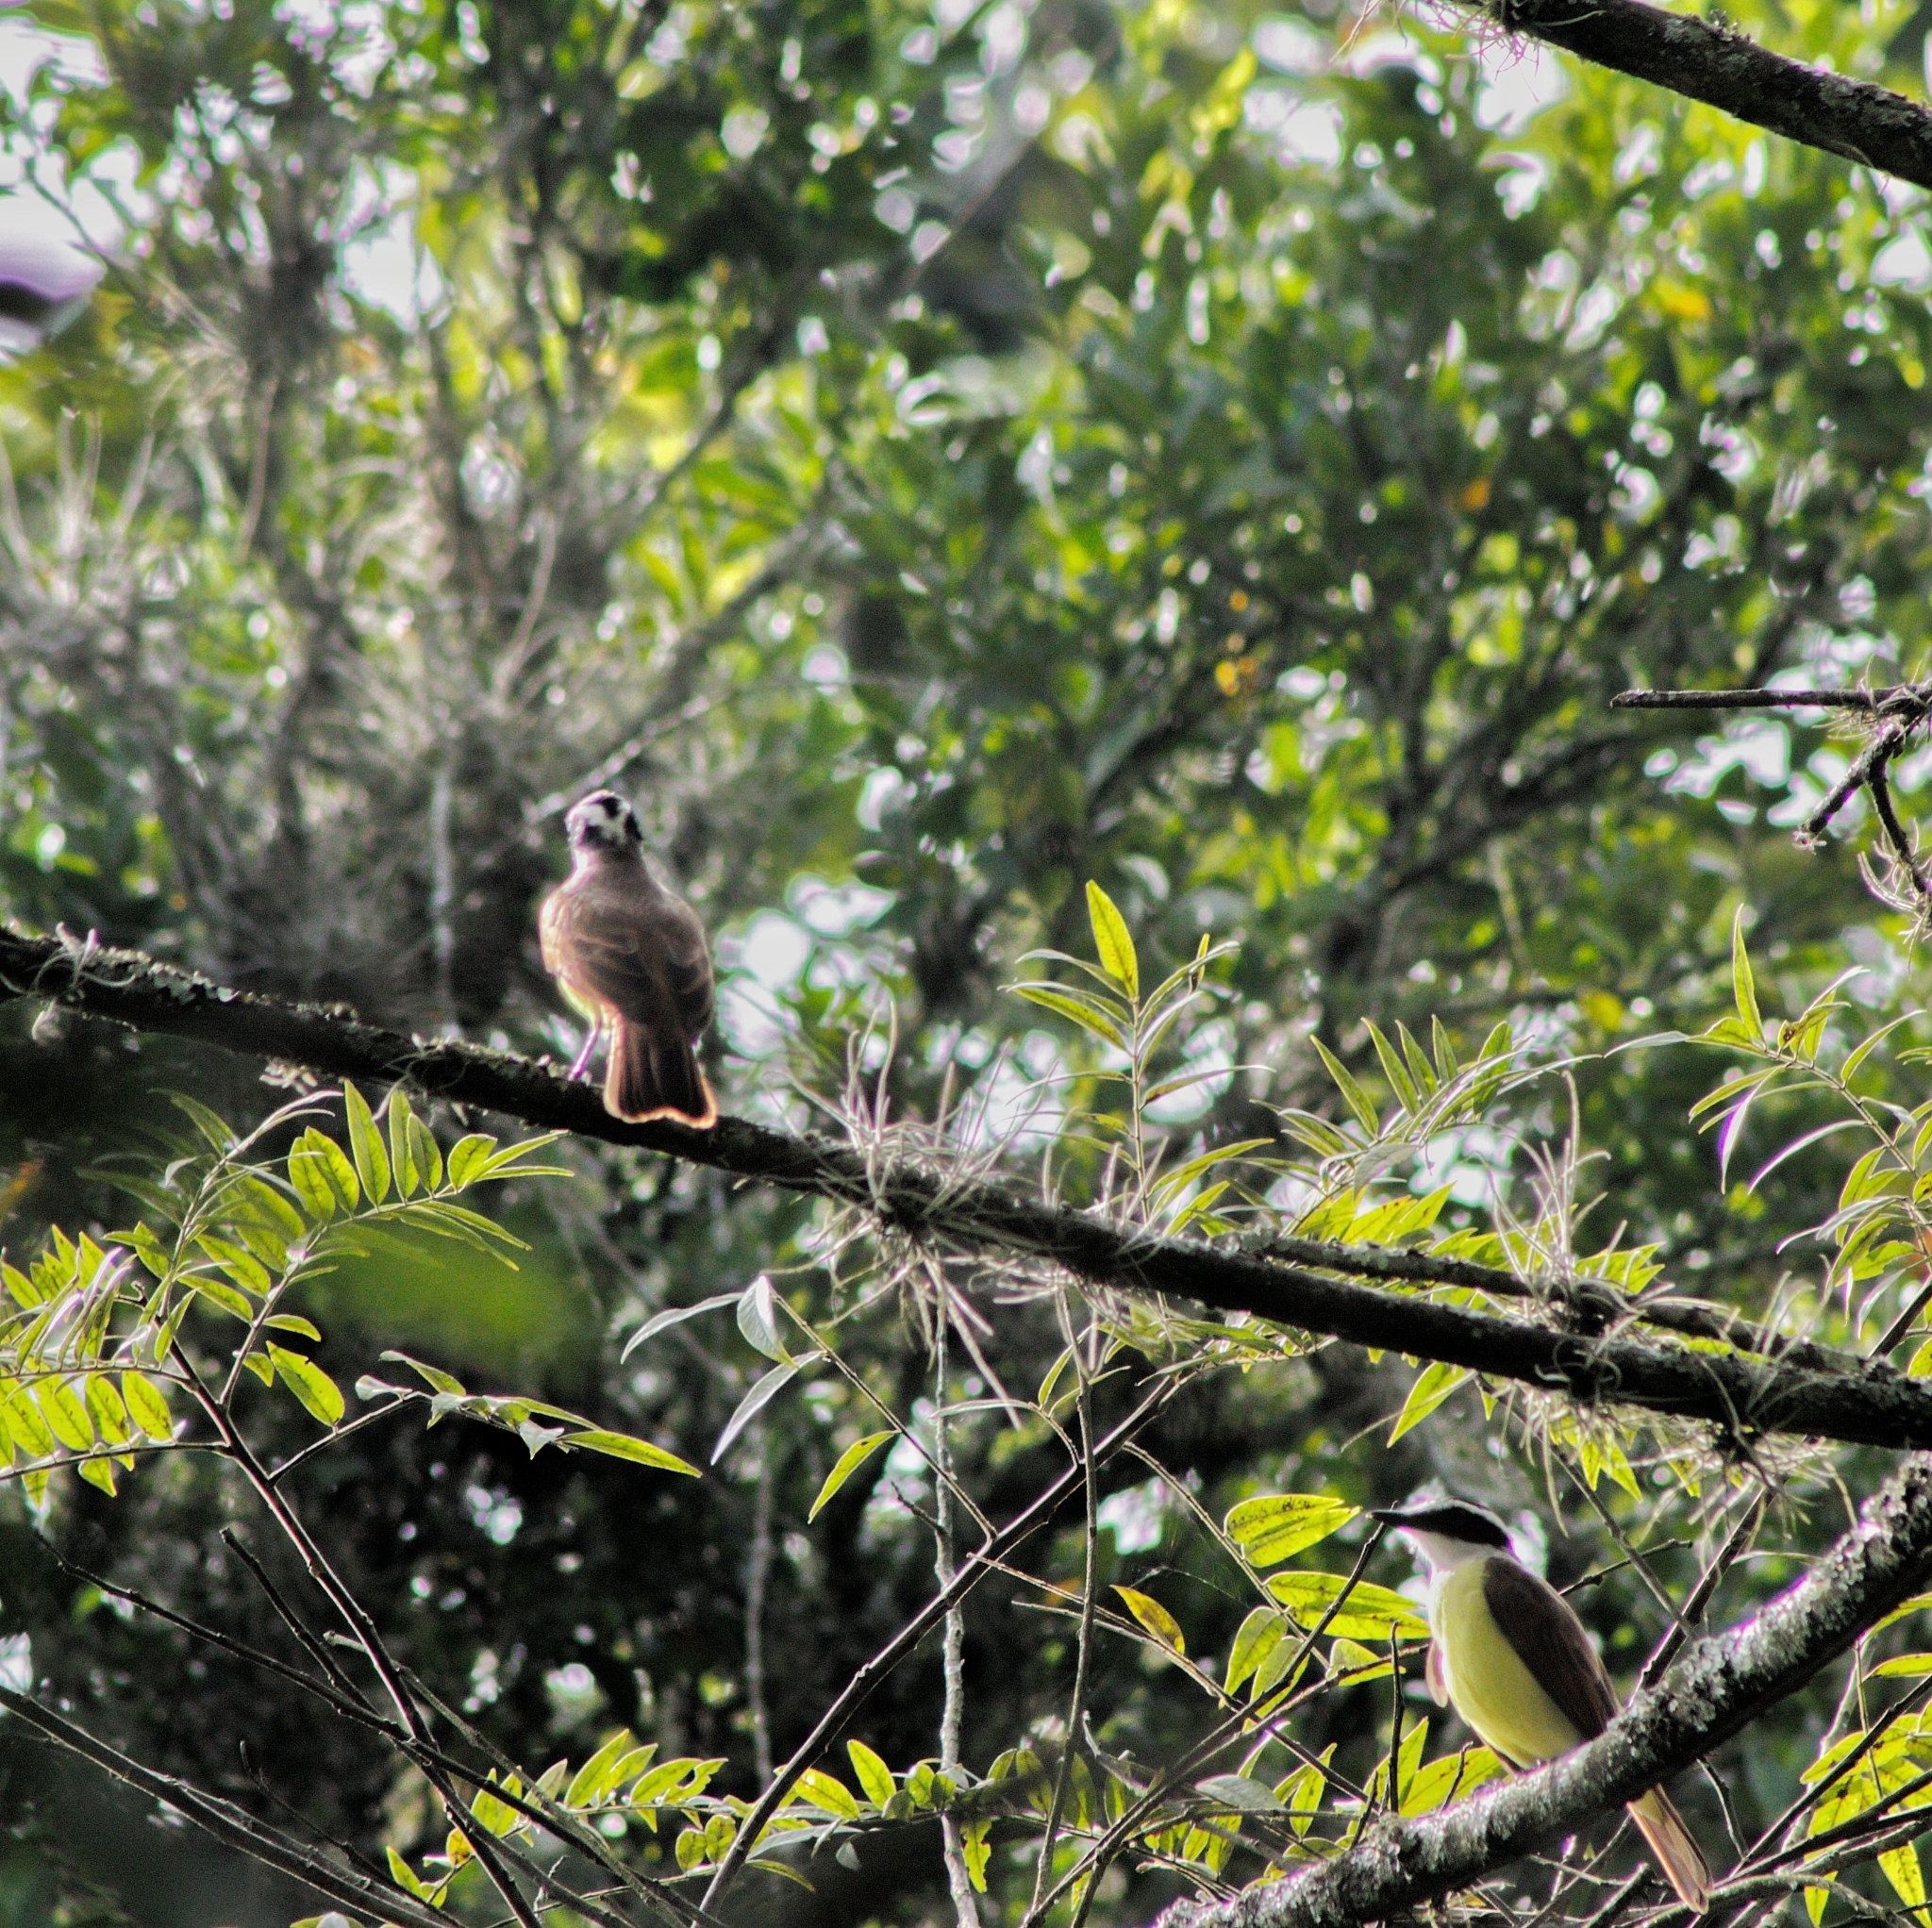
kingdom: Animalia
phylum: Chordata
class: Aves
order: Passeriformes
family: Tyrannidae
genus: Pitangus
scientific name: Pitangus sulphuratus
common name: Great kiskadee
